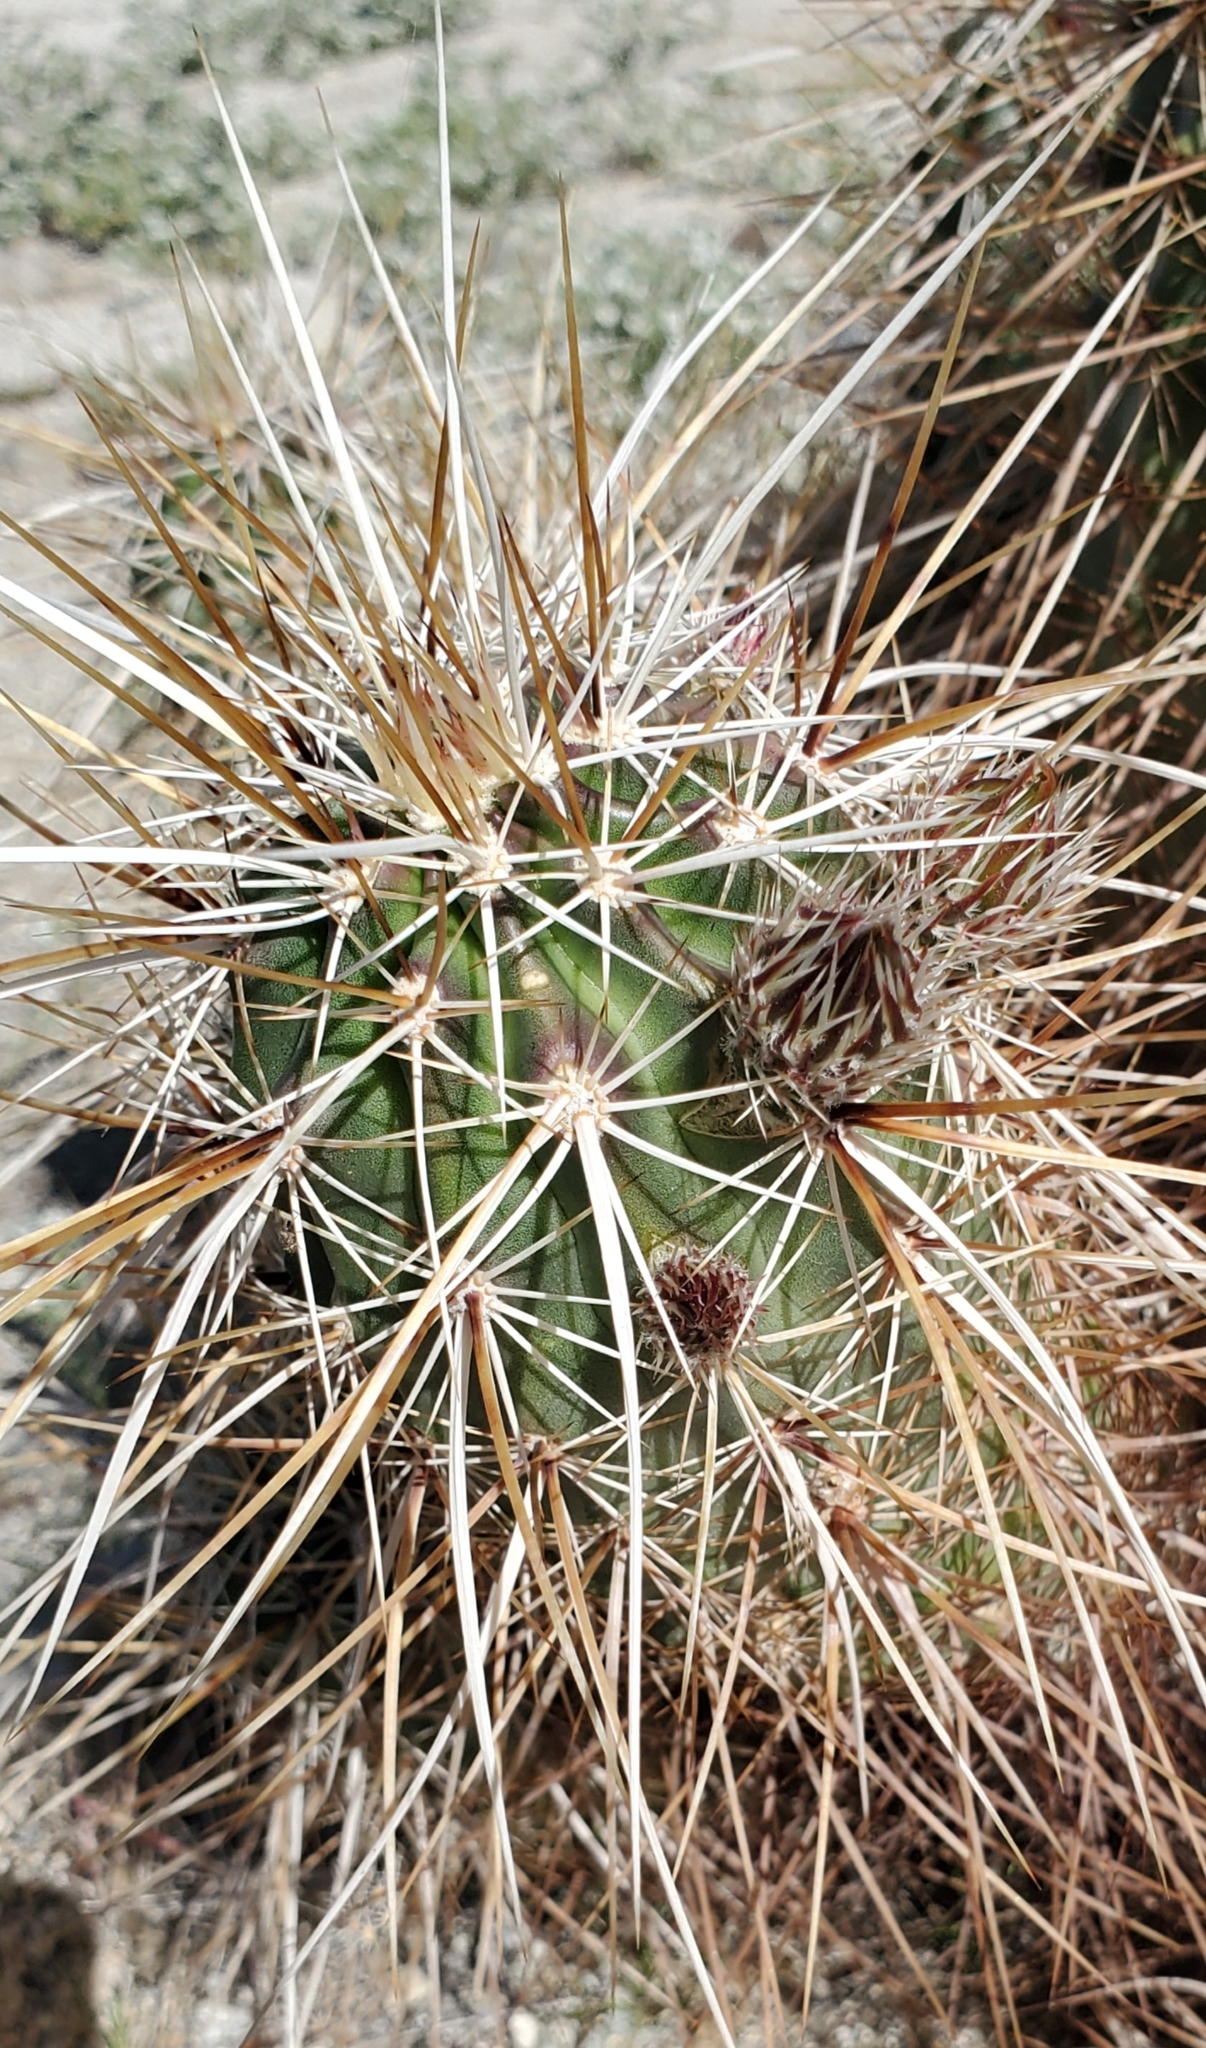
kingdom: Plantae
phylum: Tracheophyta
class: Magnoliopsida
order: Caryophyllales
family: Cactaceae
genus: Echinocereus
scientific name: Echinocereus engelmannii
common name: Engelmann's hedgehog cactus
